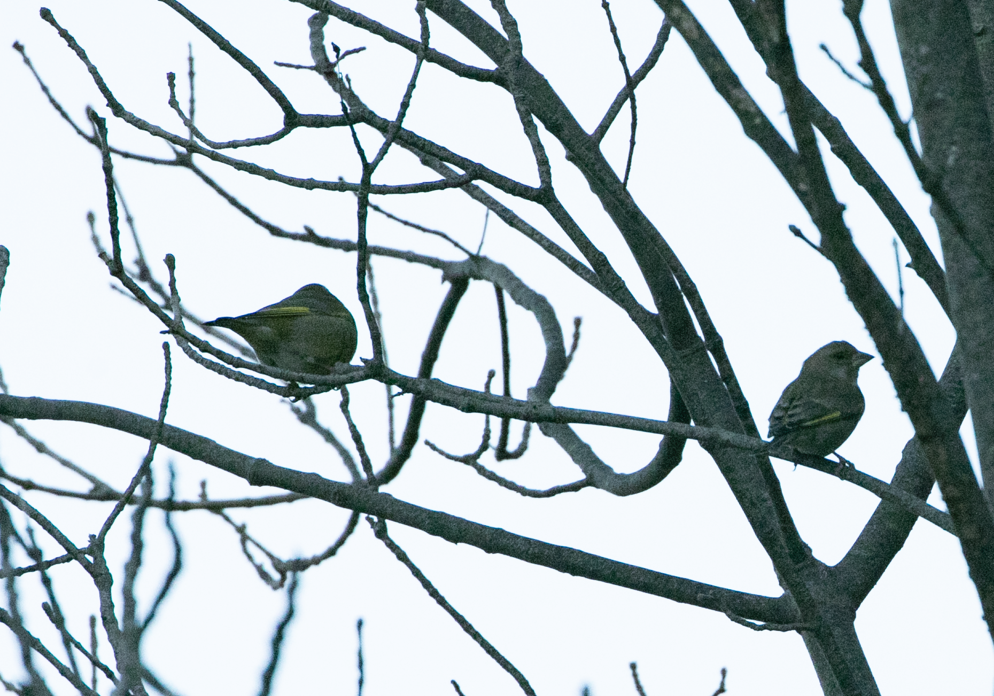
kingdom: Plantae
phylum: Tracheophyta
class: Liliopsida
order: Poales
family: Poaceae
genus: Chloris
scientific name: Chloris chloris
